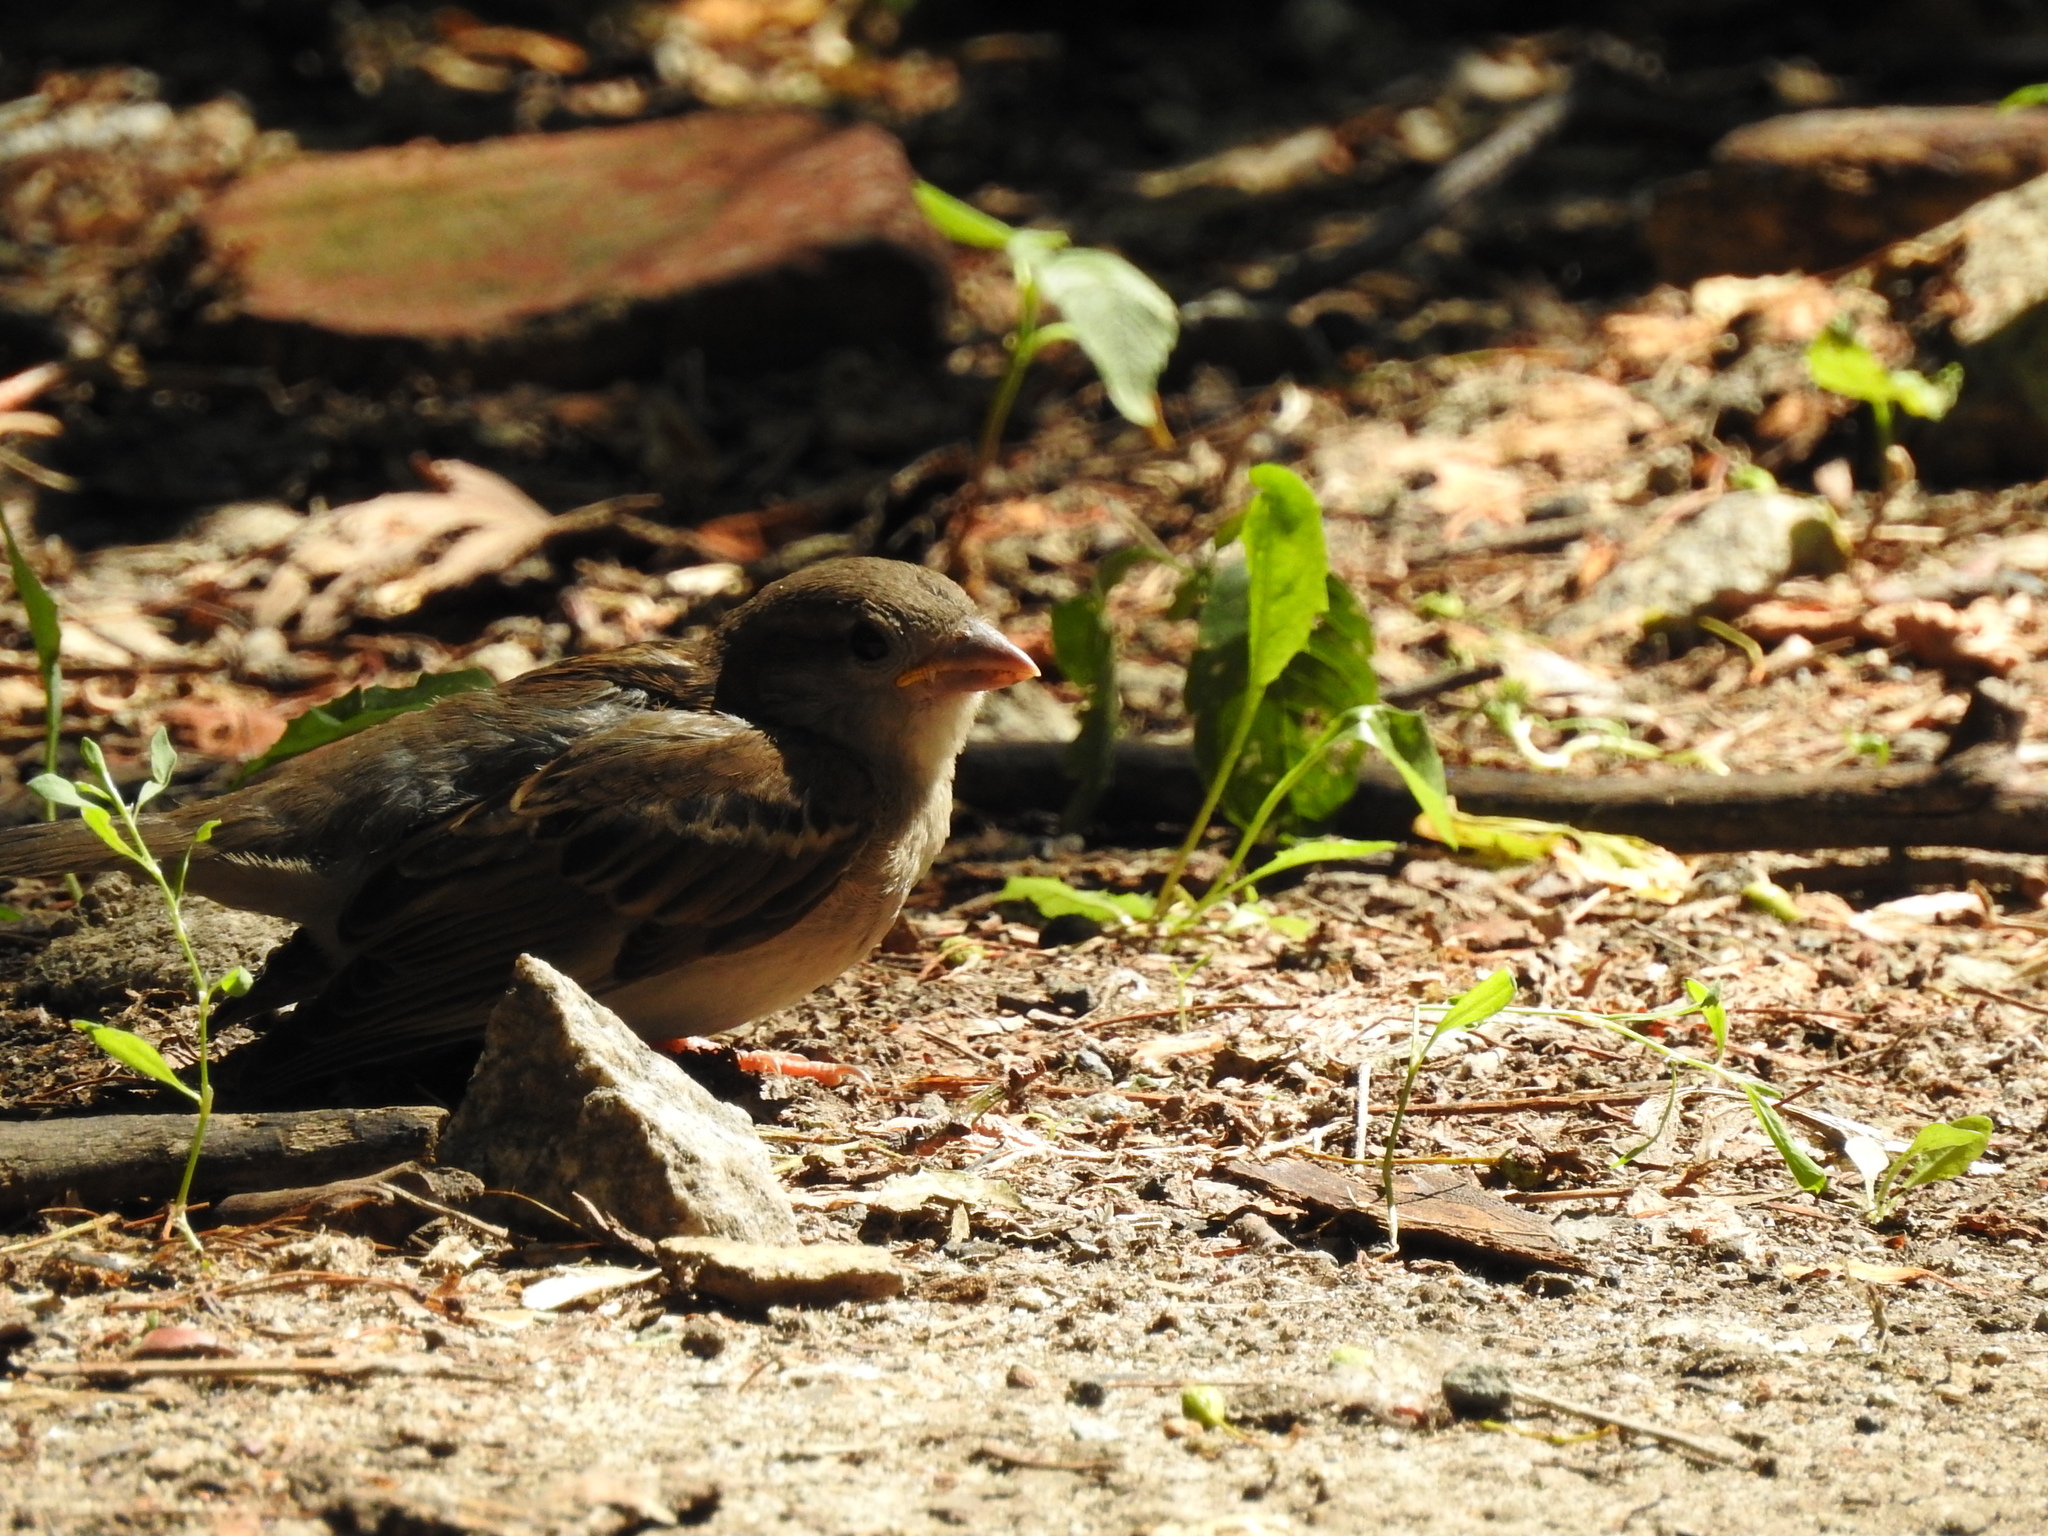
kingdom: Animalia
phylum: Chordata
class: Aves
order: Passeriformes
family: Passeridae
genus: Passer
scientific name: Passer domesticus
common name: House sparrow
